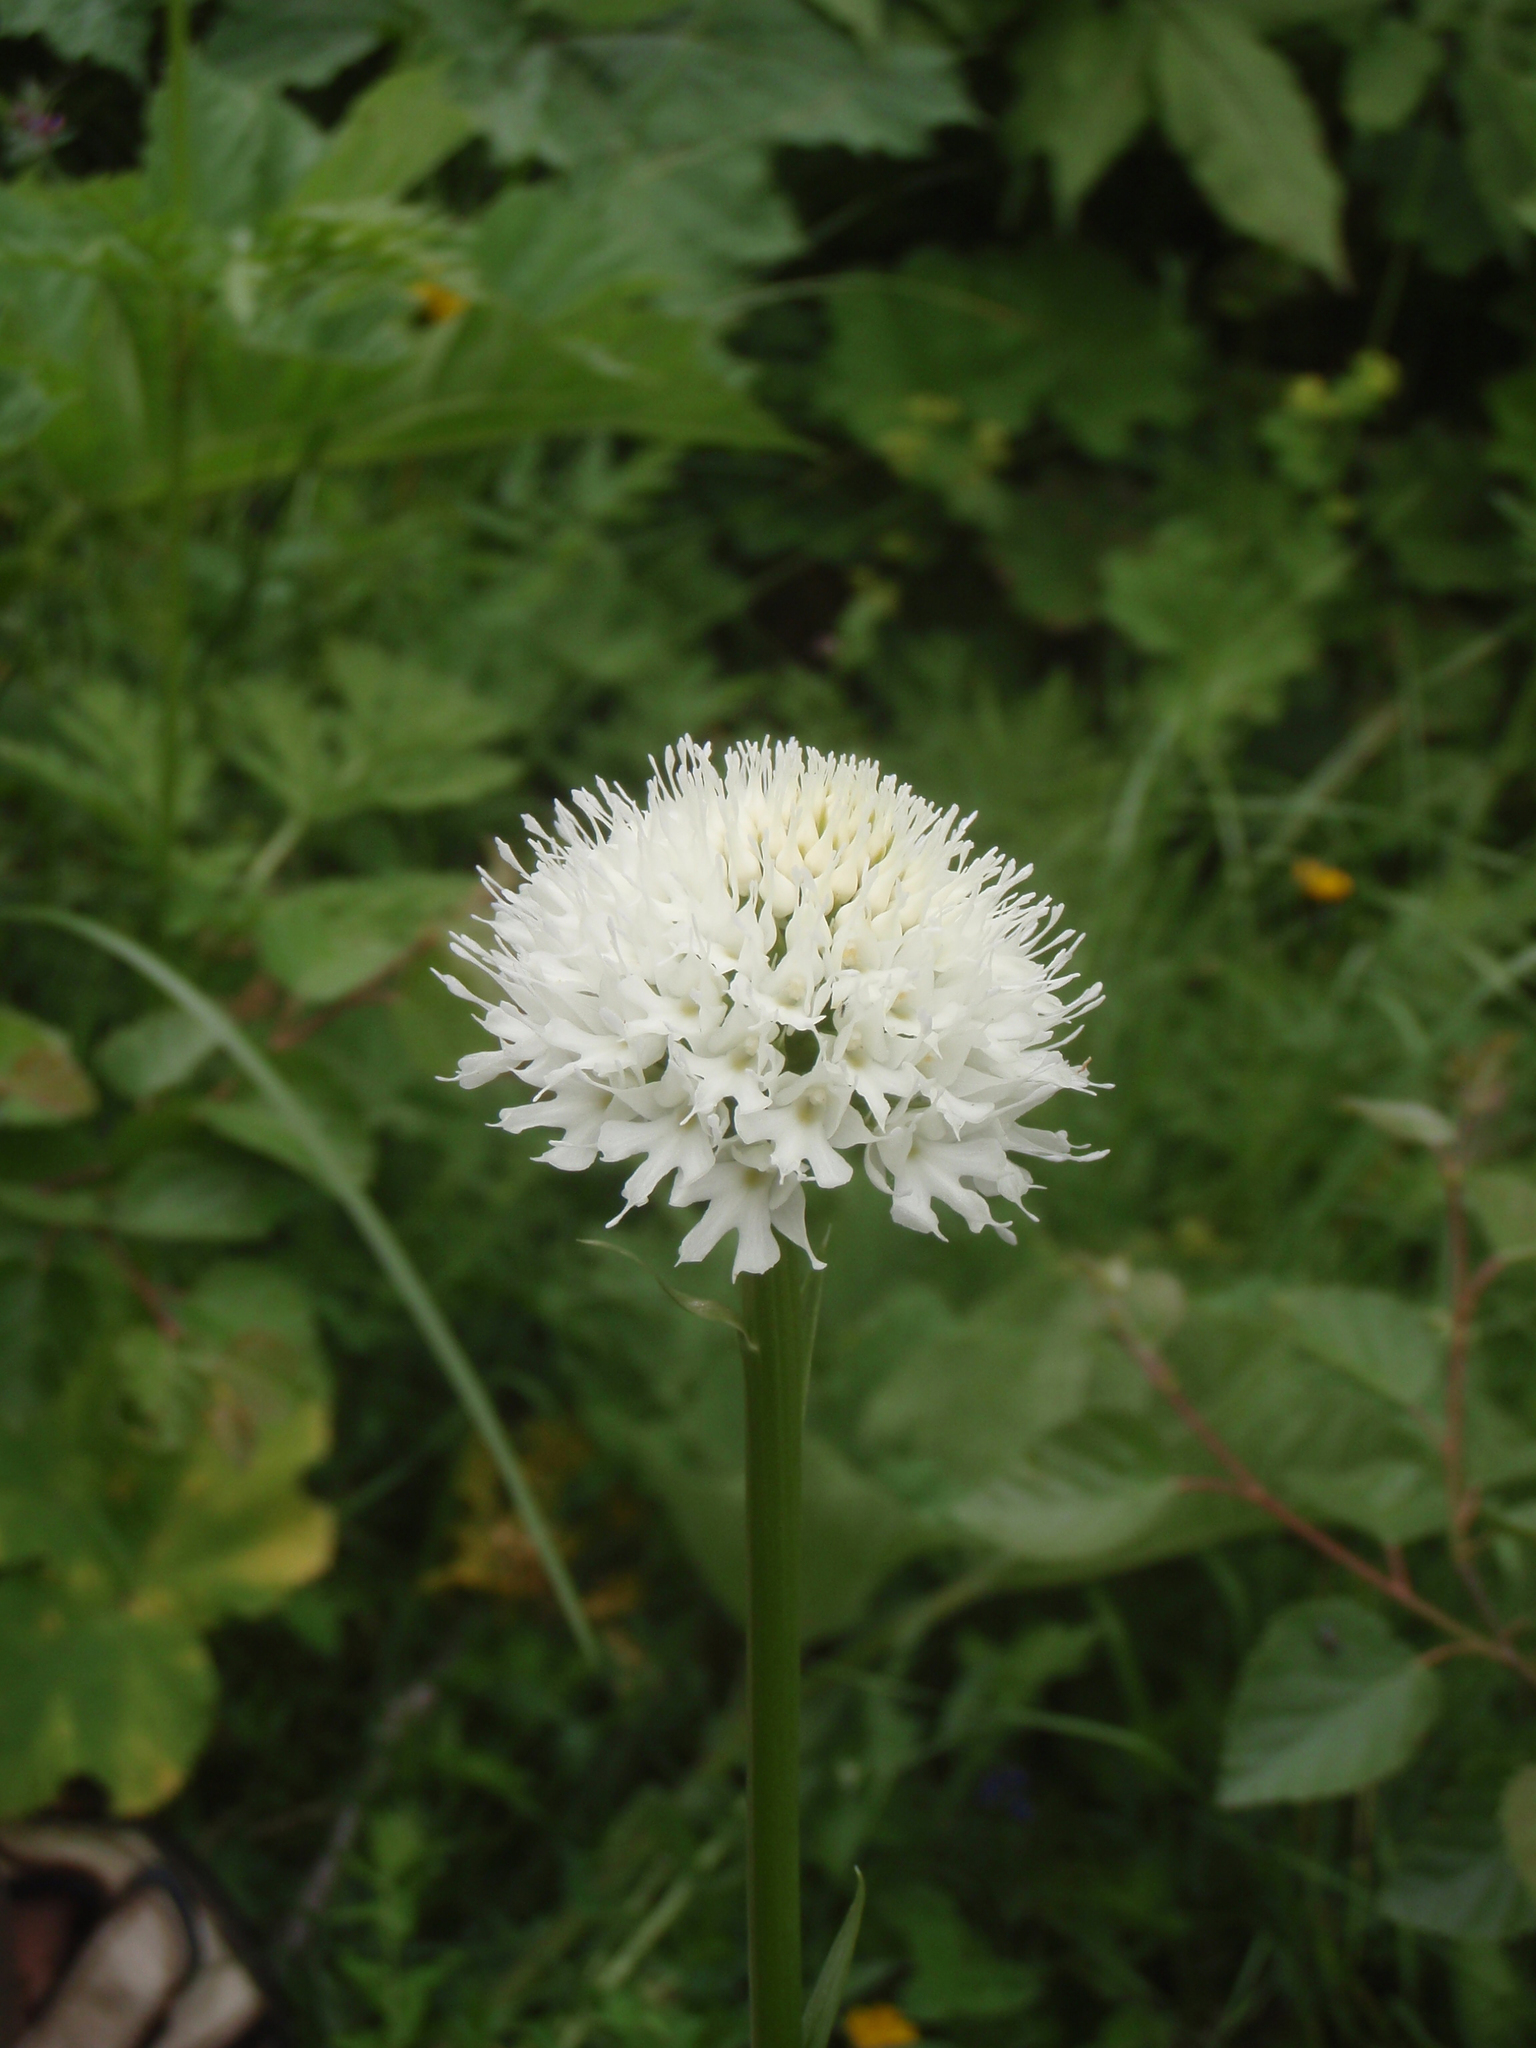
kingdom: Plantae
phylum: Tracheophyta
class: Liliopsida
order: Asparagales
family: Orchidaceae
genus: Traunsteinera
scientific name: Traunsteinera sphaerica
